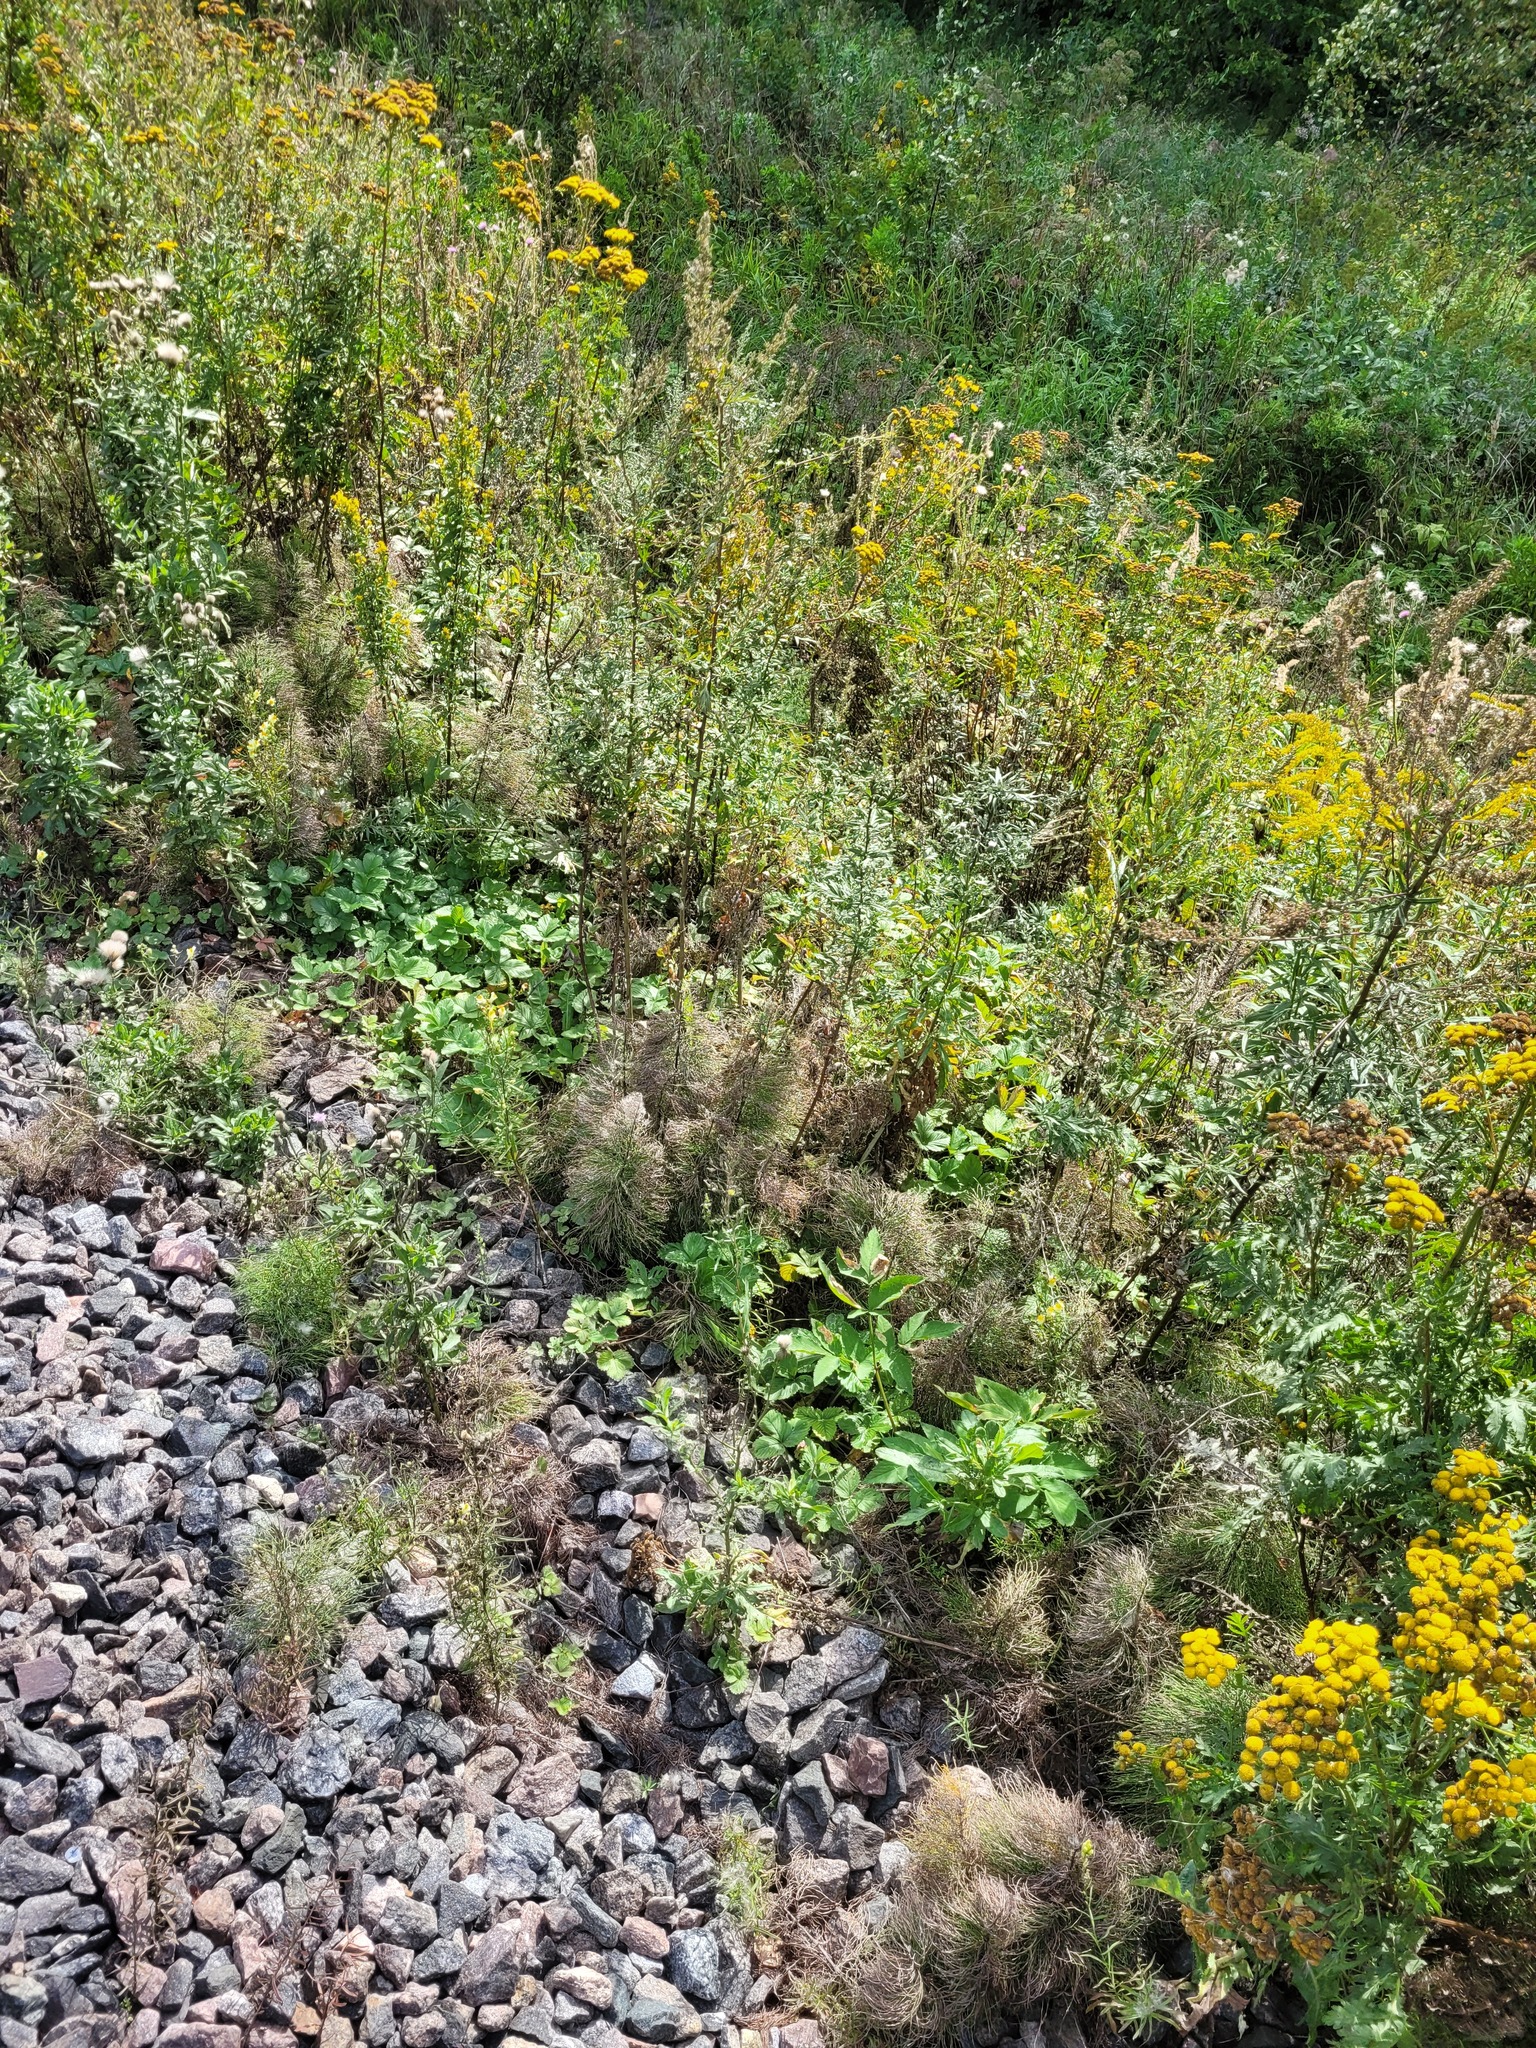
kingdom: Plantae
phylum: Tracheophyta
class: Polypodiopsida
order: Equisetales
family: Equisetaceae
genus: Equisetum
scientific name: Equisetum sylvaticum
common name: Wood horsetail
